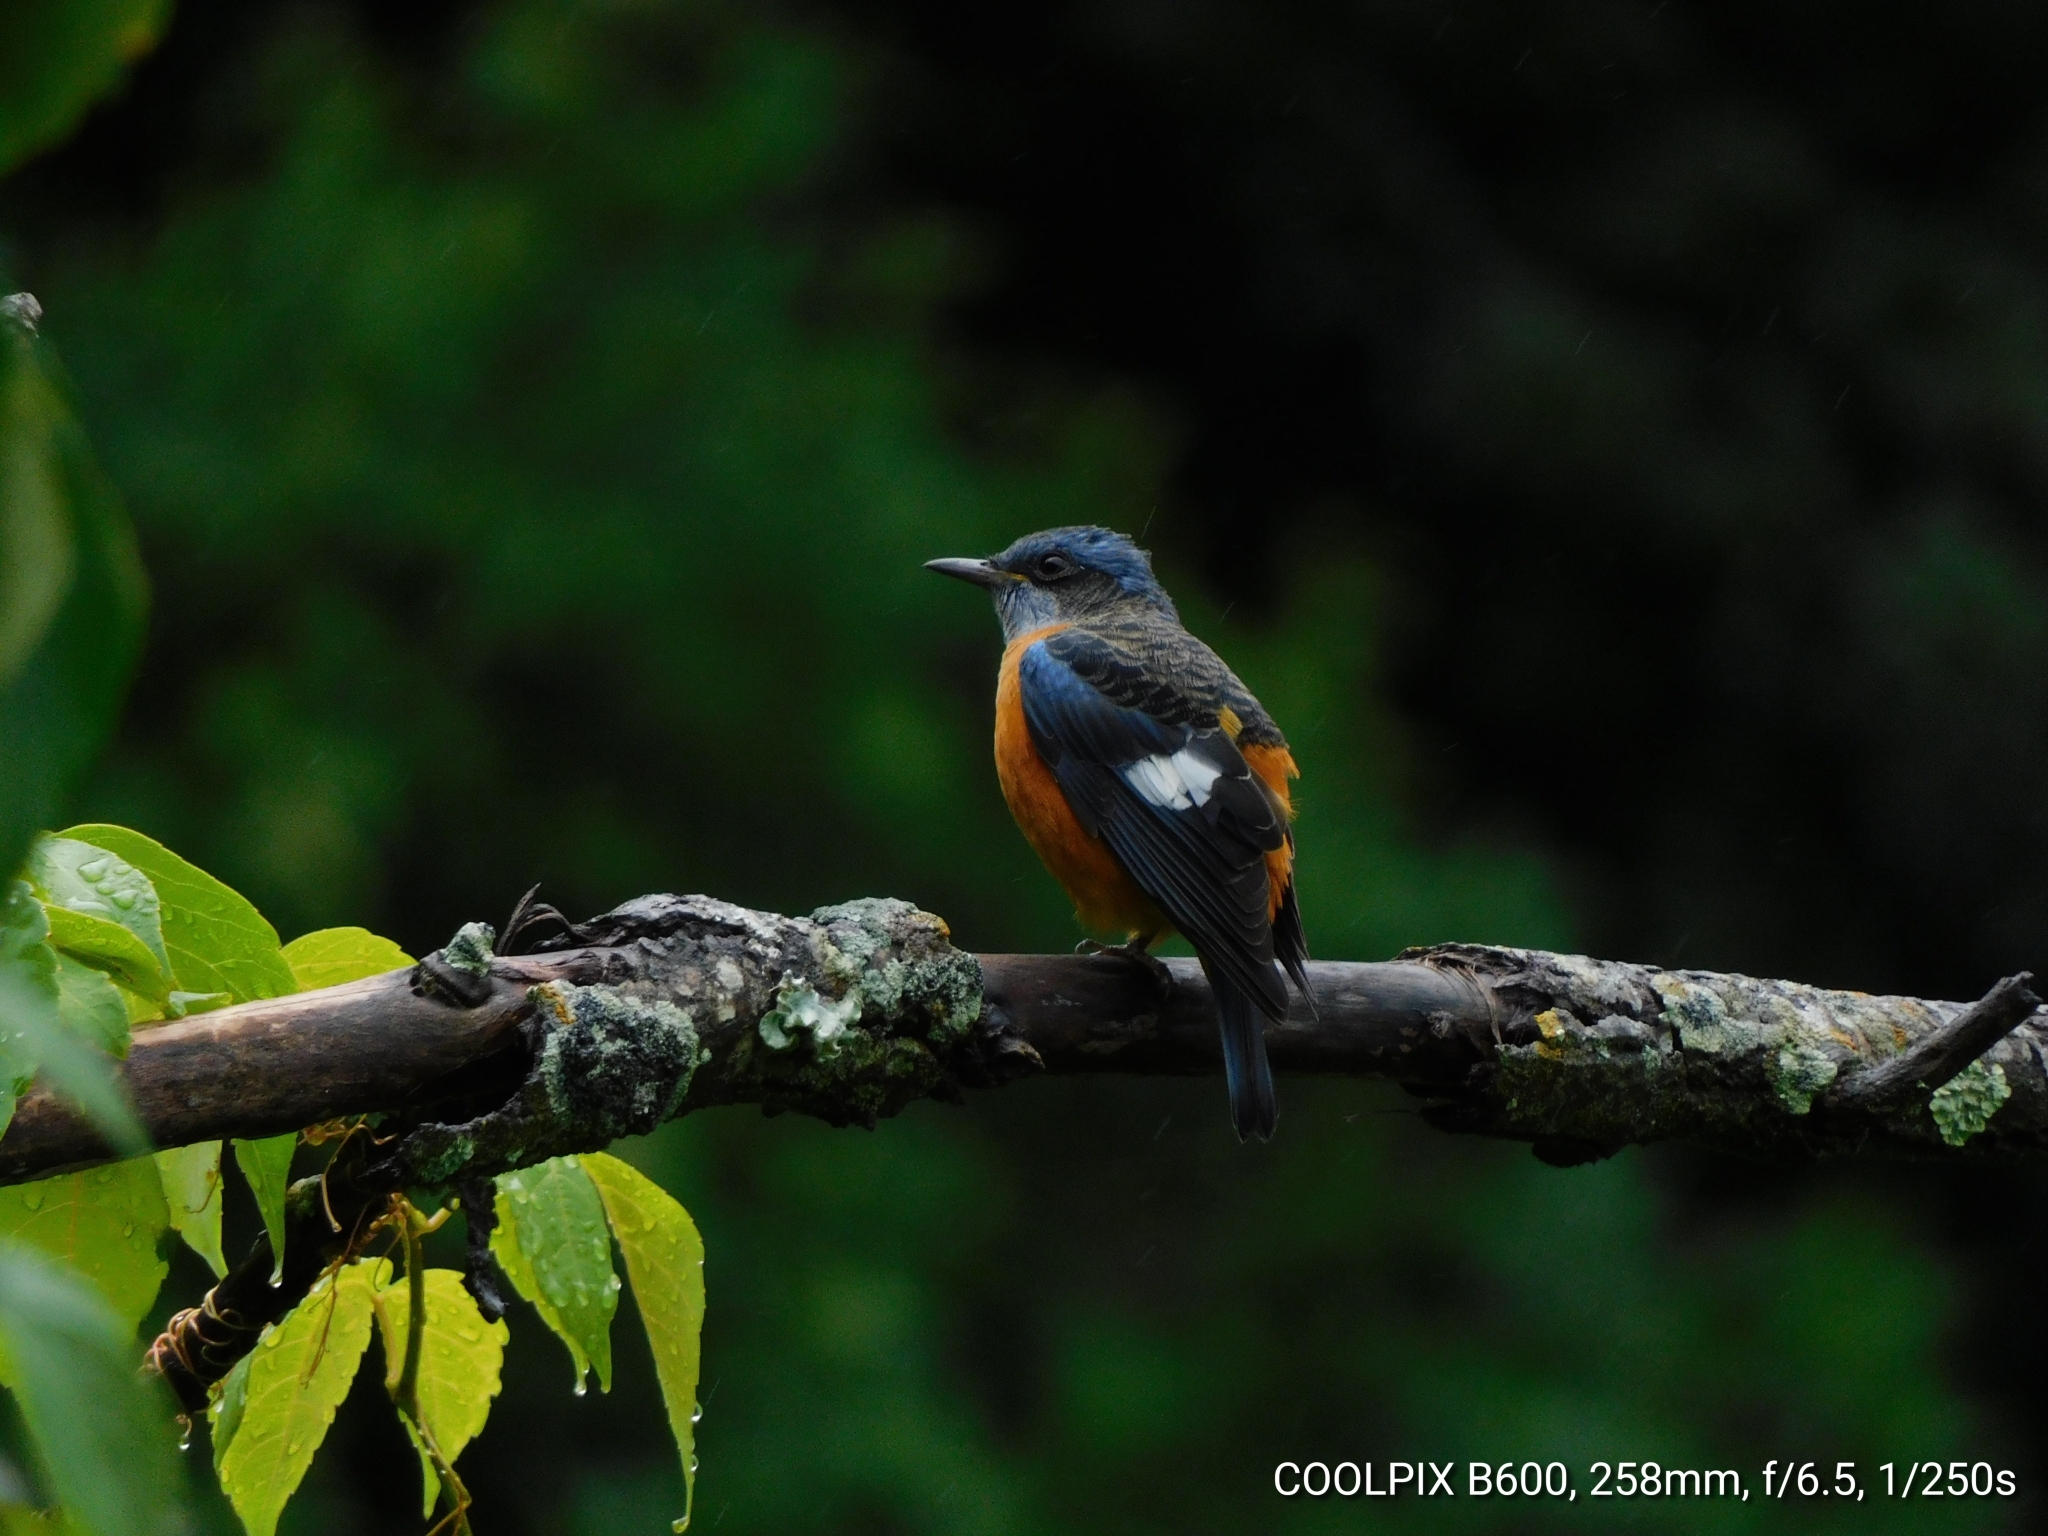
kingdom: Animalia
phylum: Chordata
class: Aves
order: Passeriformes
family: Muscicapidae
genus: Monticola
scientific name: Monticola cinclorhynchus
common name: Blue-capped rock thrush
